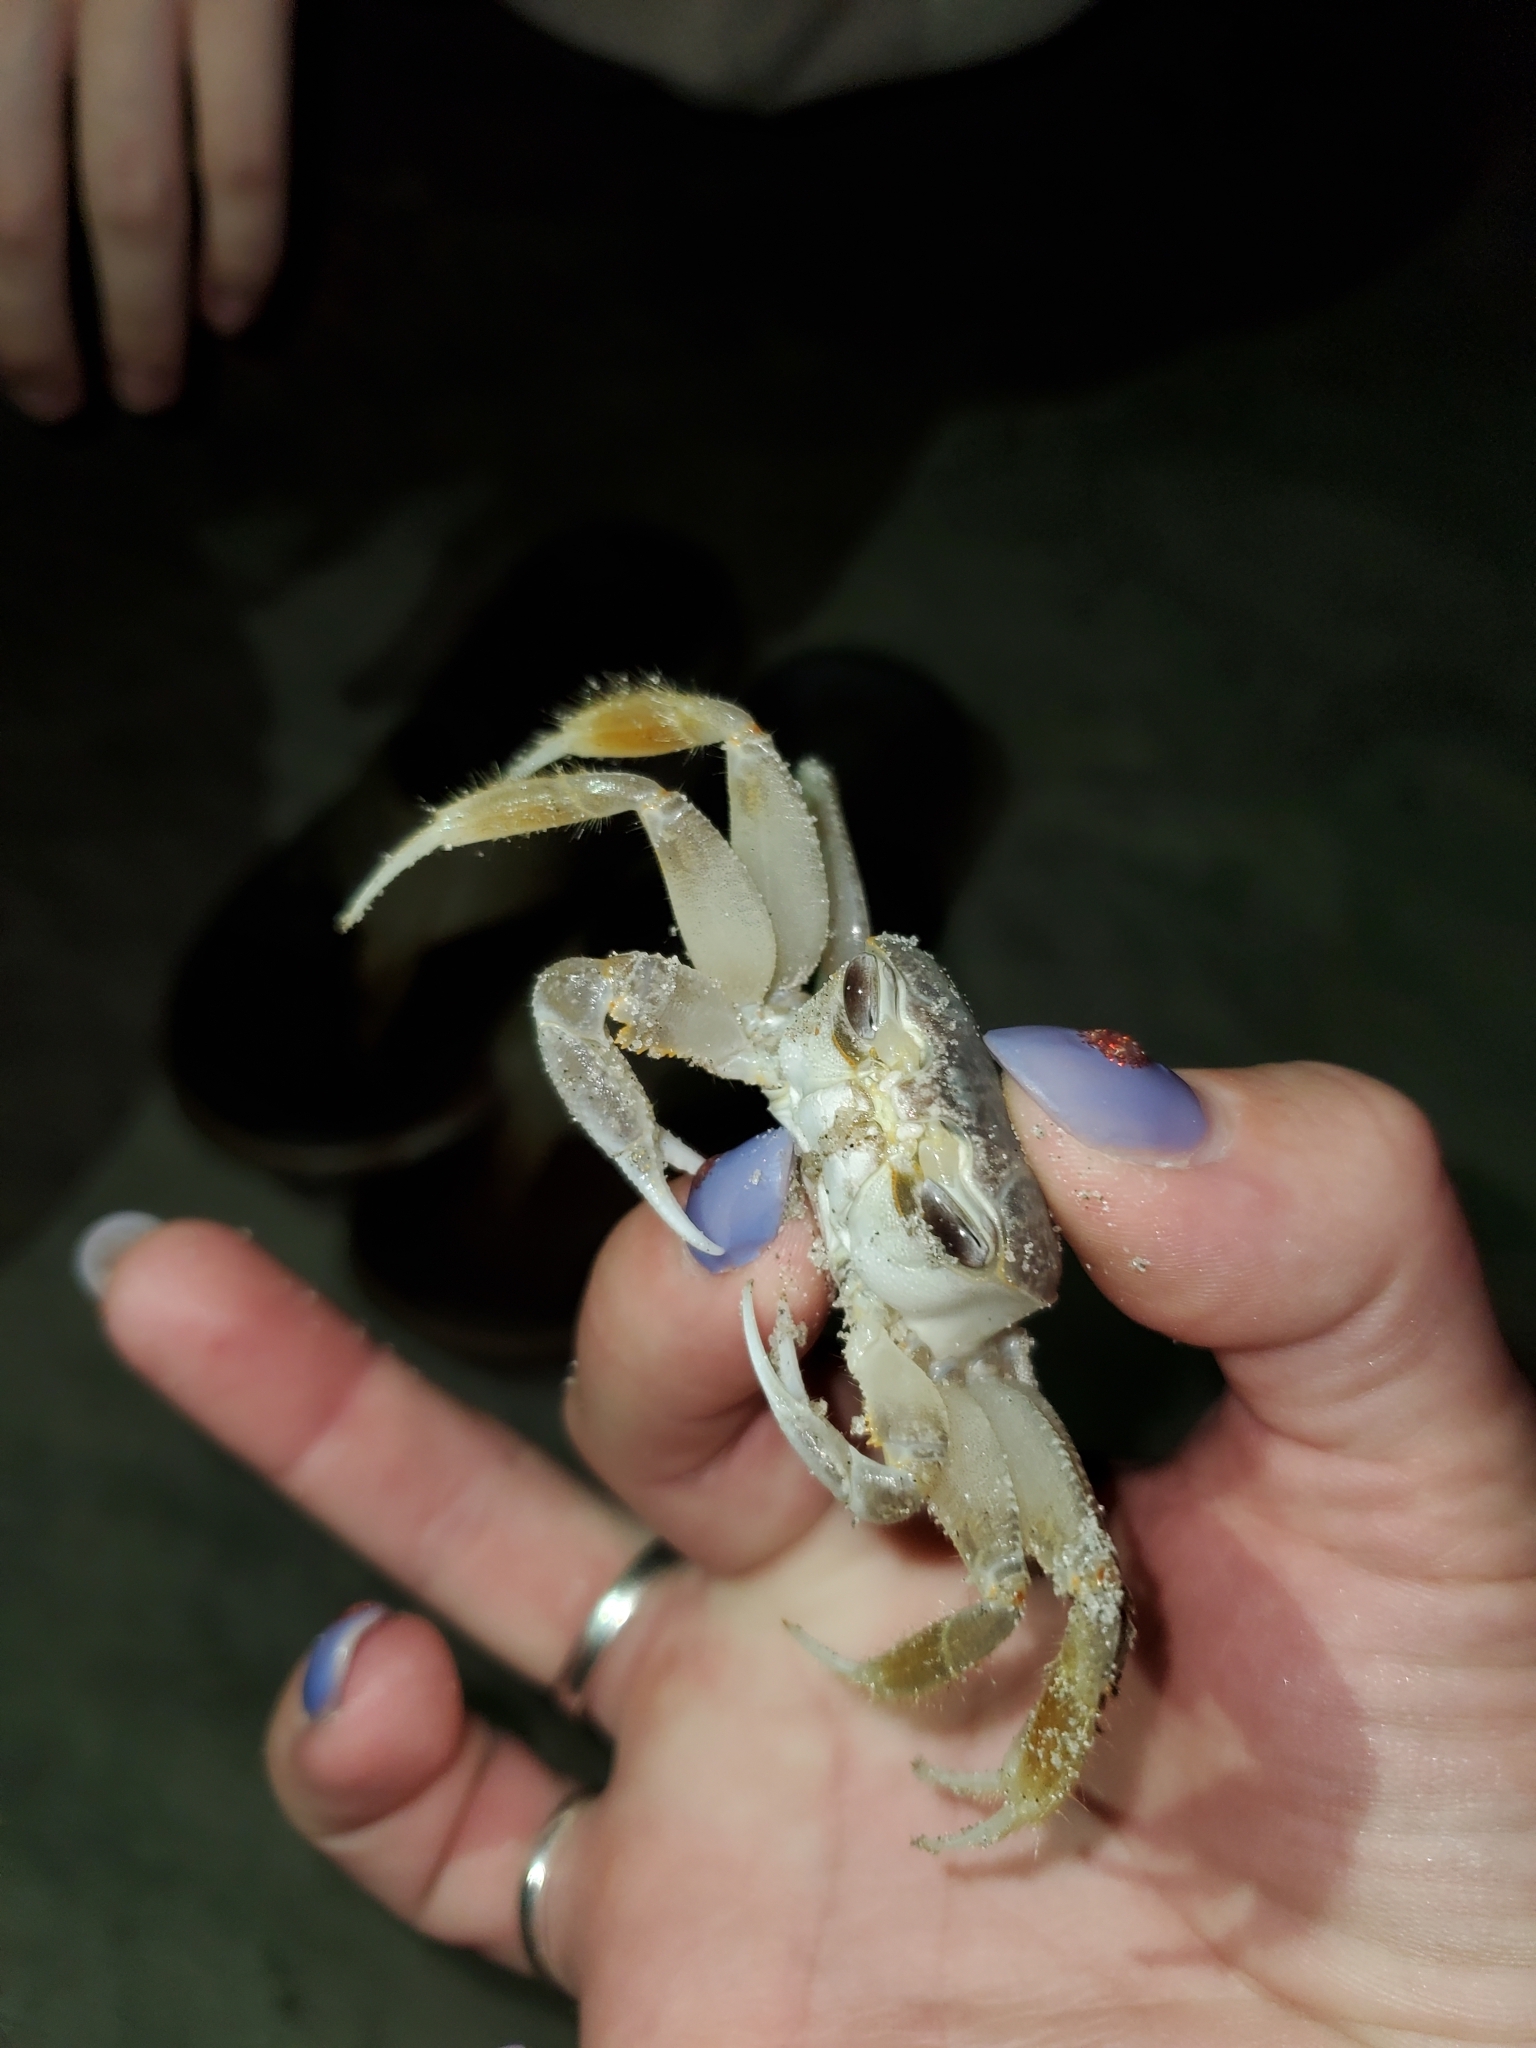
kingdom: Animalia
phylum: Arthropoda
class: Malacostraca
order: Decapoda
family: Ocypodidae
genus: Ocypode
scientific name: Ocypode quadrata
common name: Ghost crab
